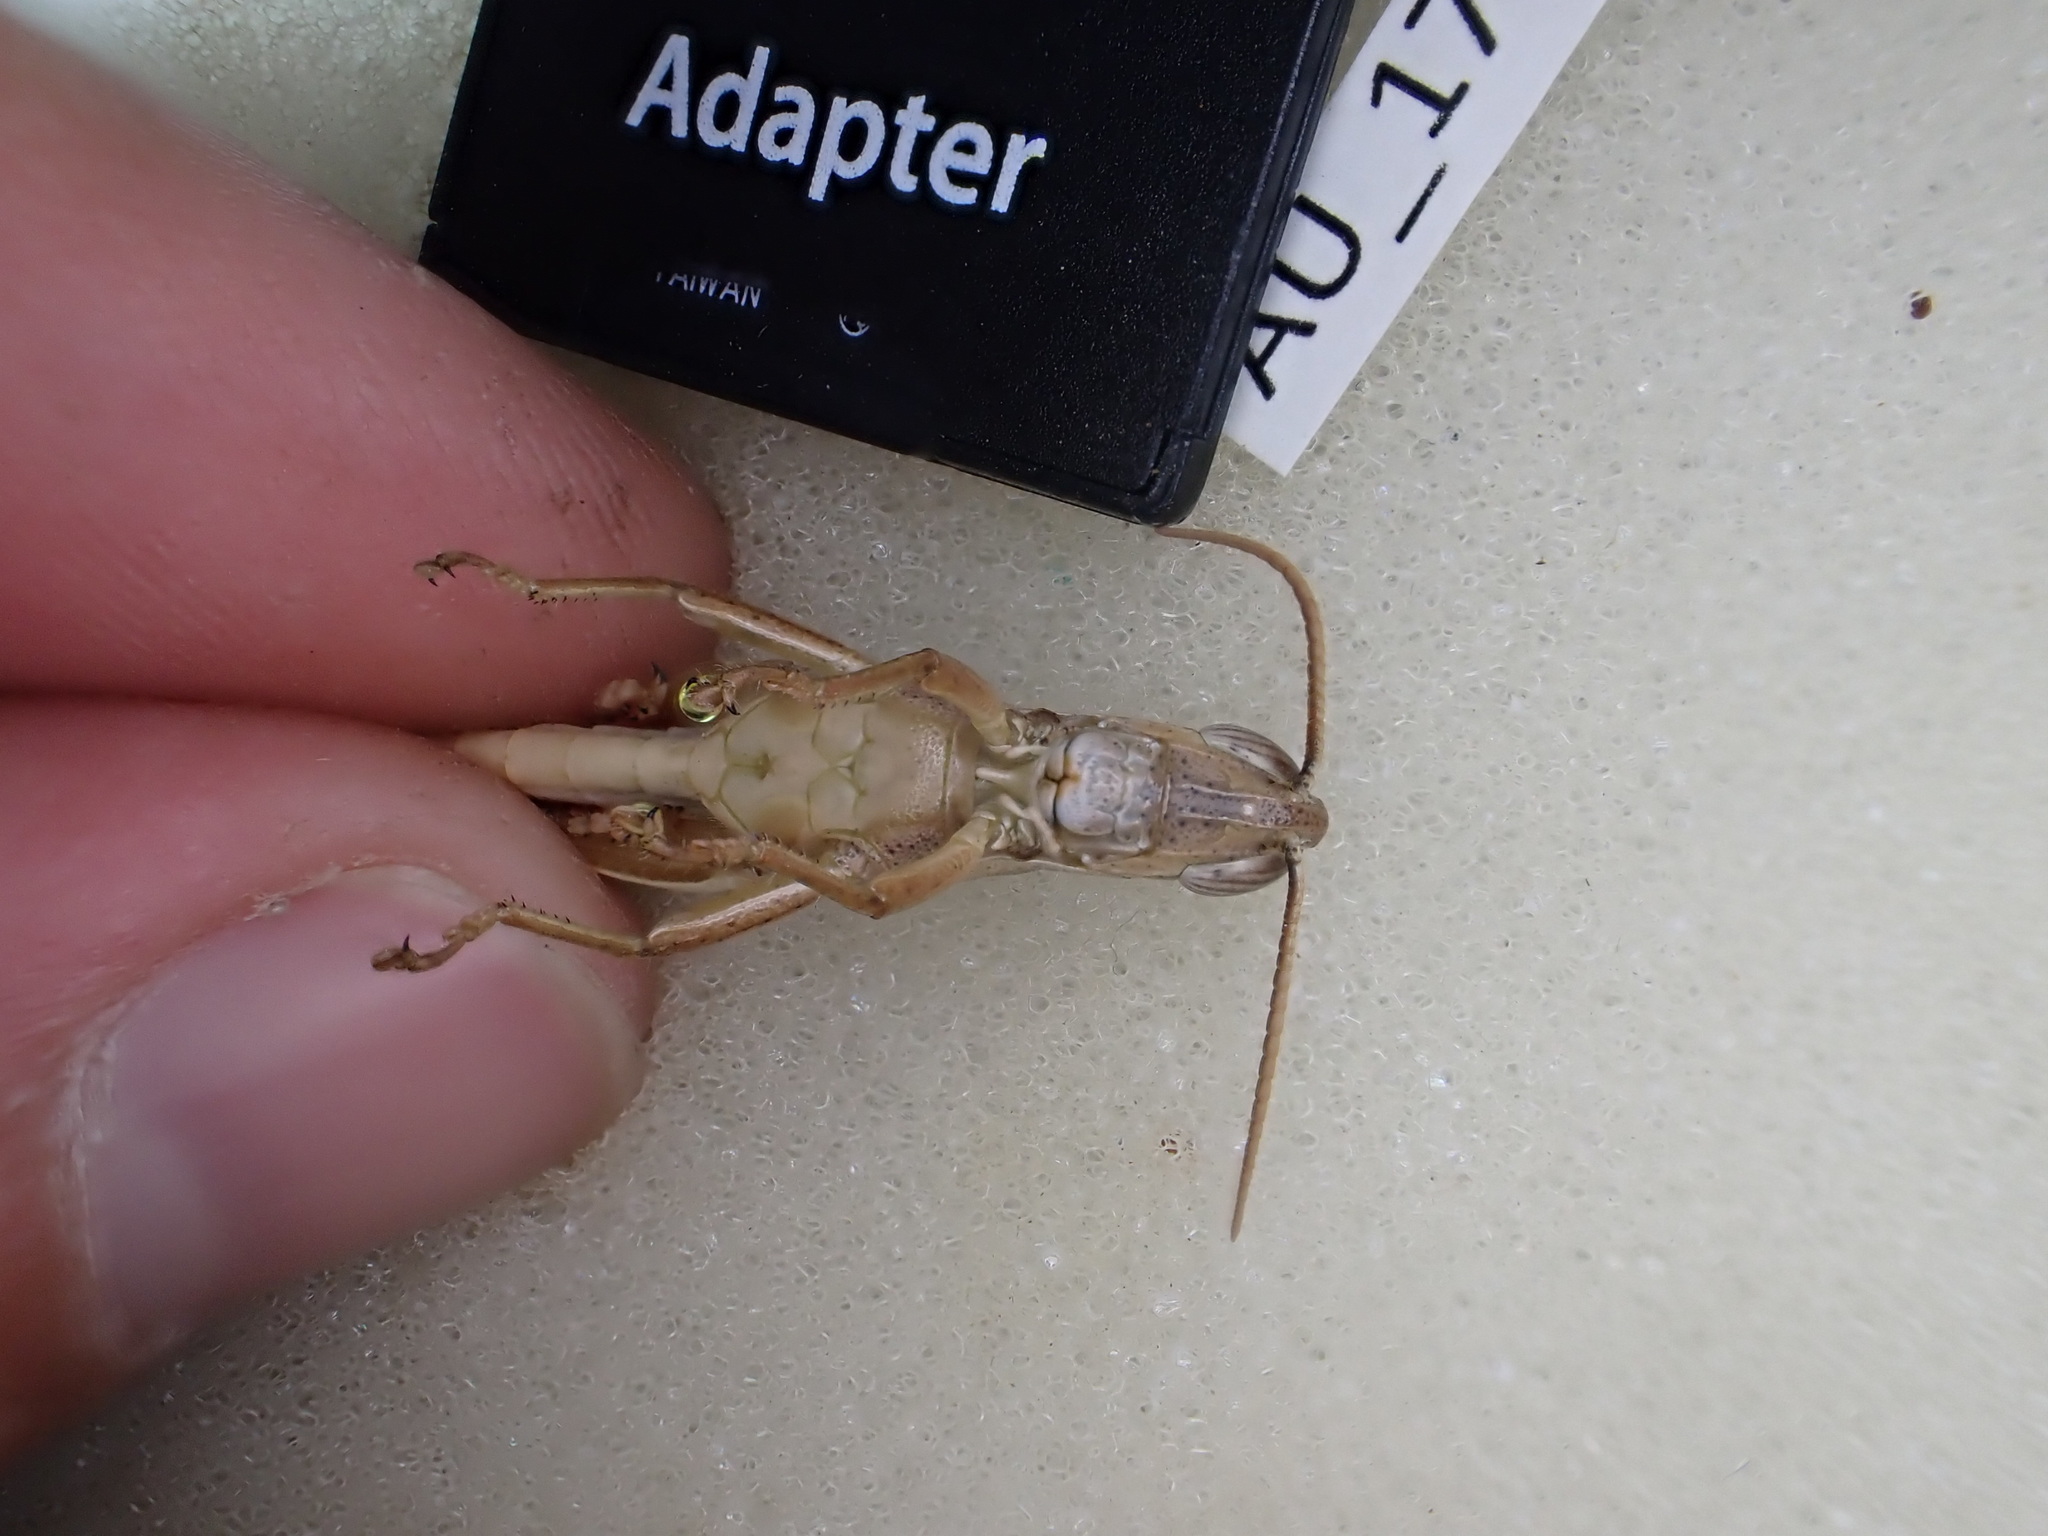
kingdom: Animalia
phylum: Arthropoda
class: Insecta
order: Orthoptera
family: Acrididae
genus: Stenocatantops
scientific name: Stenocatantops vitripennis
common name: Light-brown sharptail
